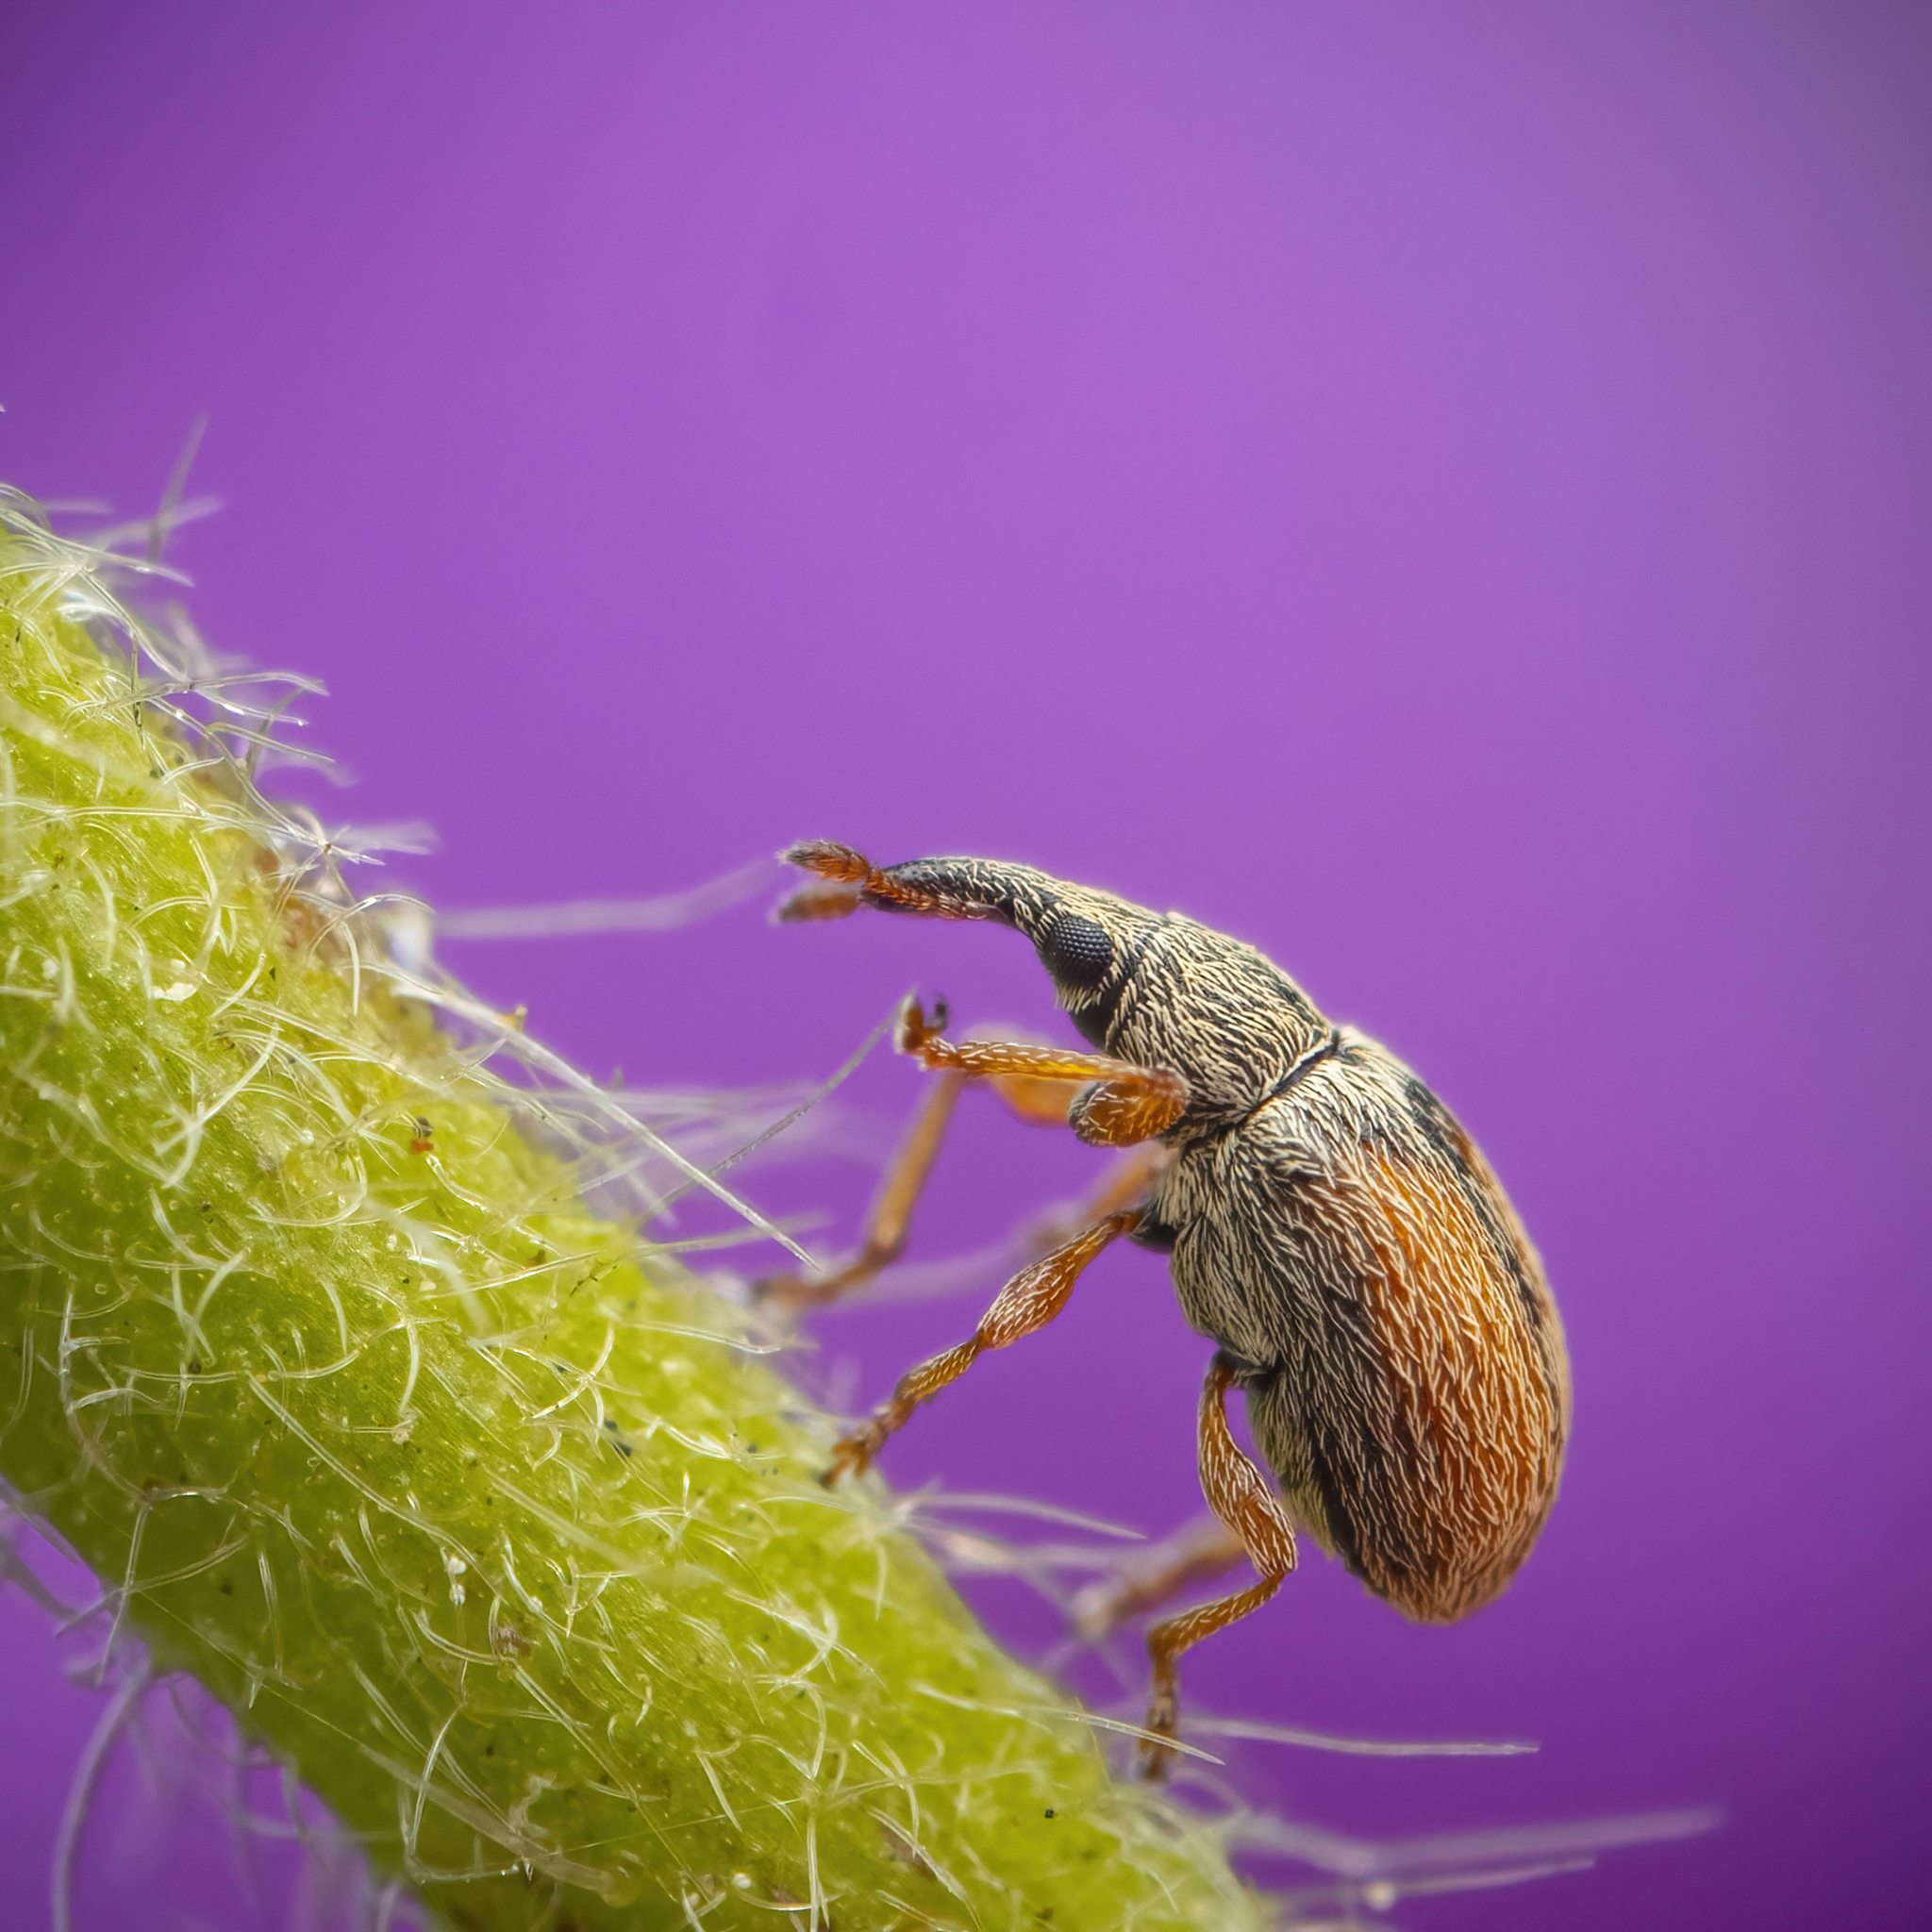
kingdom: Animalia
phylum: Arthropoda
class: Insecta
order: Coleoptera
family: Apionidae
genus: Malvapion
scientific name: Malvapion malvae
